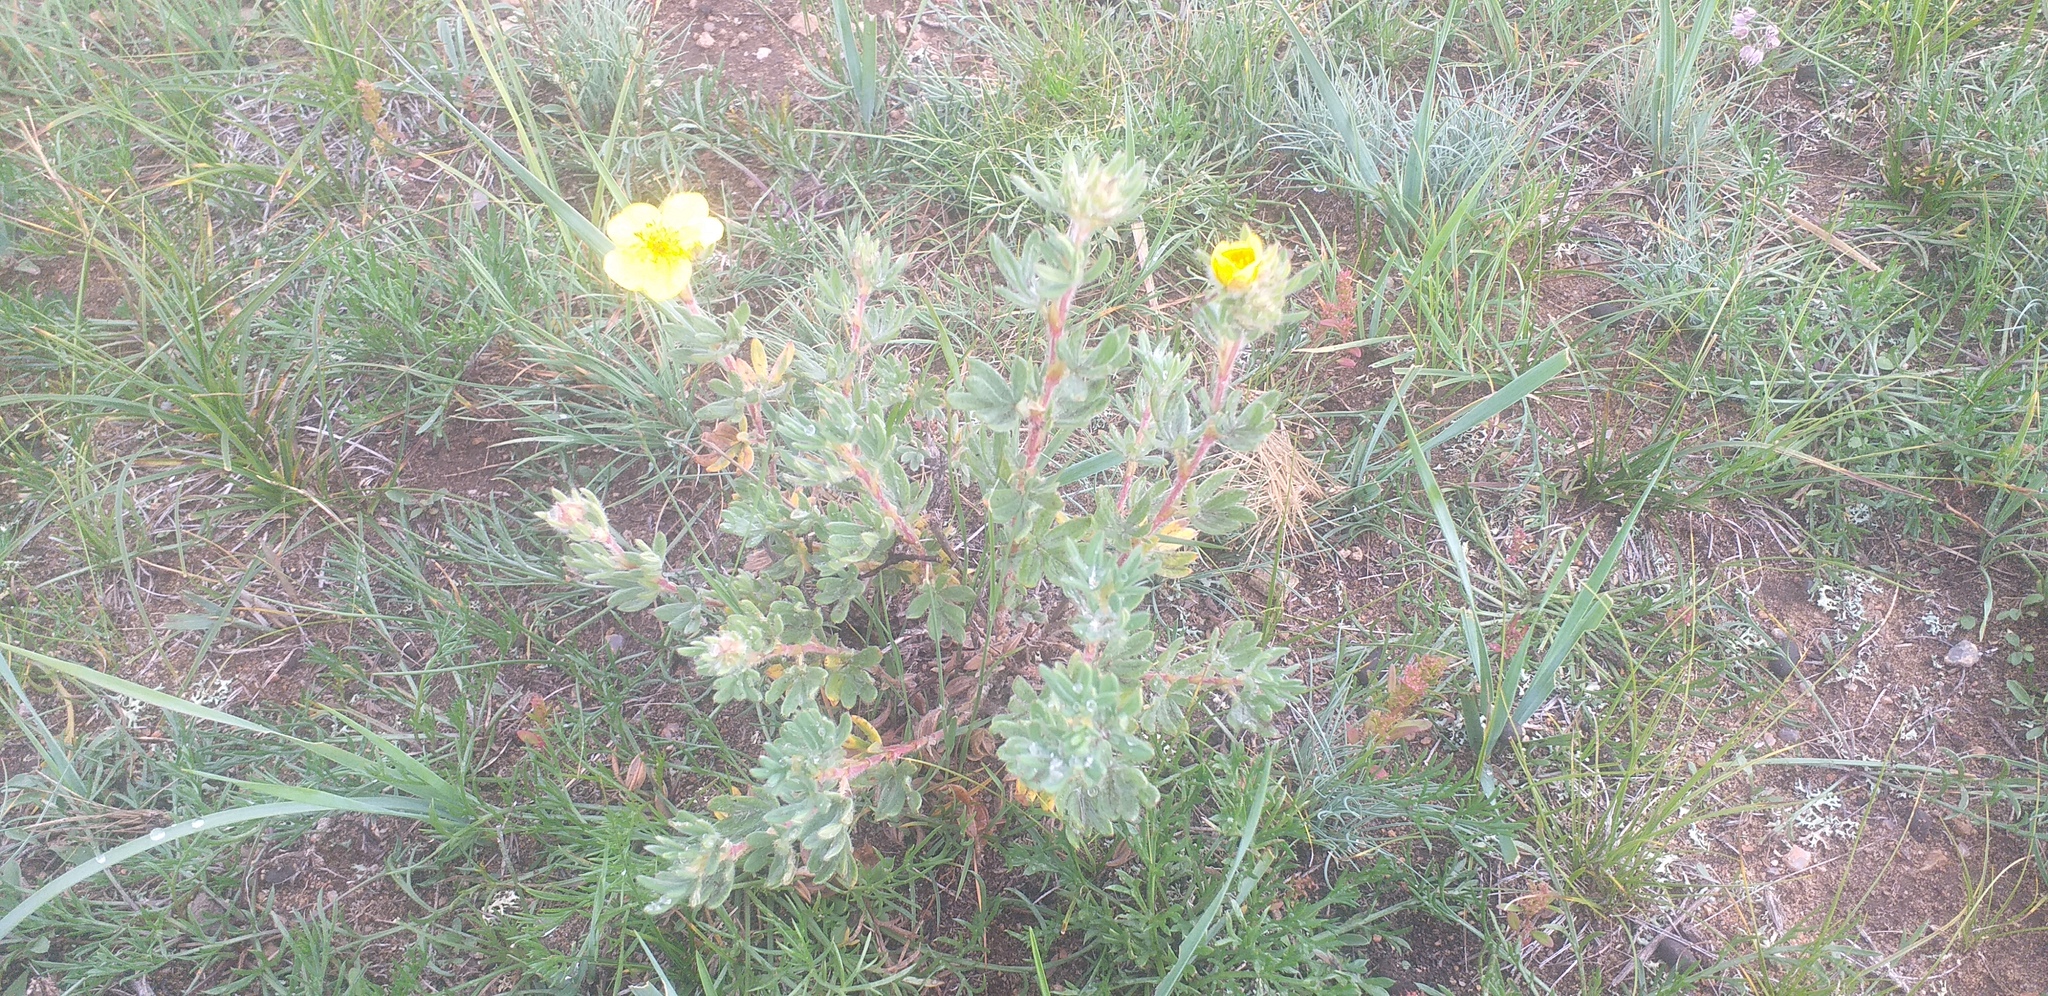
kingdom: Plantae
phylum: Tracheophyta
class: Magnoliopsida
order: Rosales
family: Rosaceae
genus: Dasiphora
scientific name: Dasiphora fruticosa
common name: Shrubby cinquefoil
